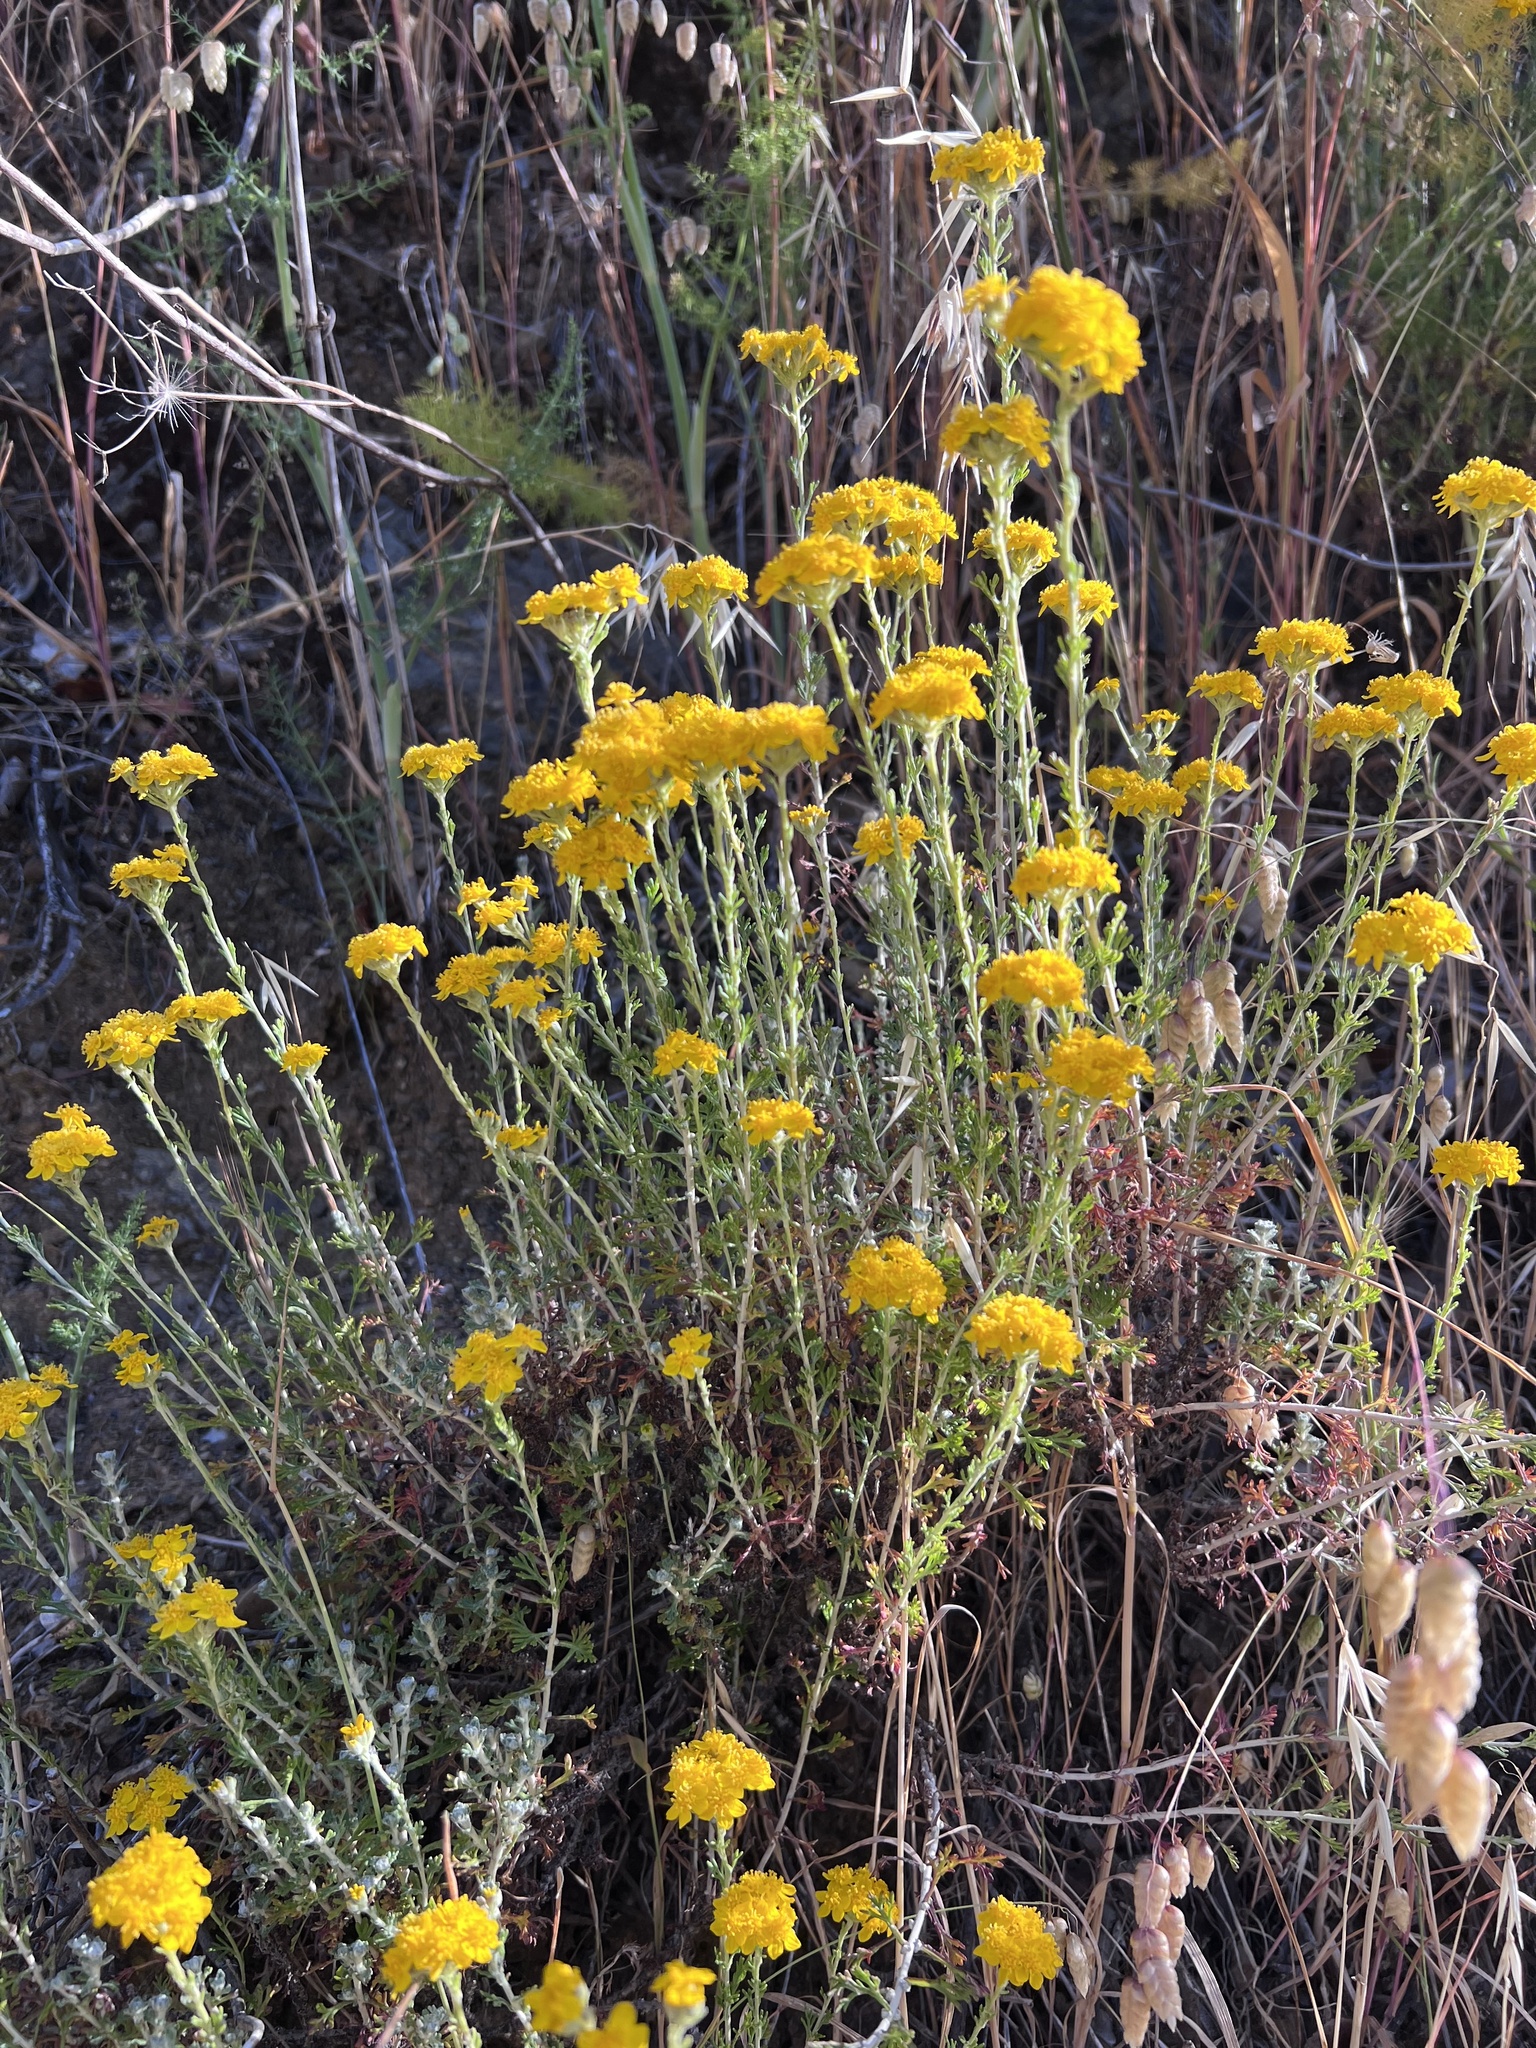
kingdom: Plantae
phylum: Tracheophyta
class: Magnoliopsida
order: Asterales
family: Asteraceae
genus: Eriophyllum
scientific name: Eriophyllum confertiflorum
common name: Golden-yarrow
